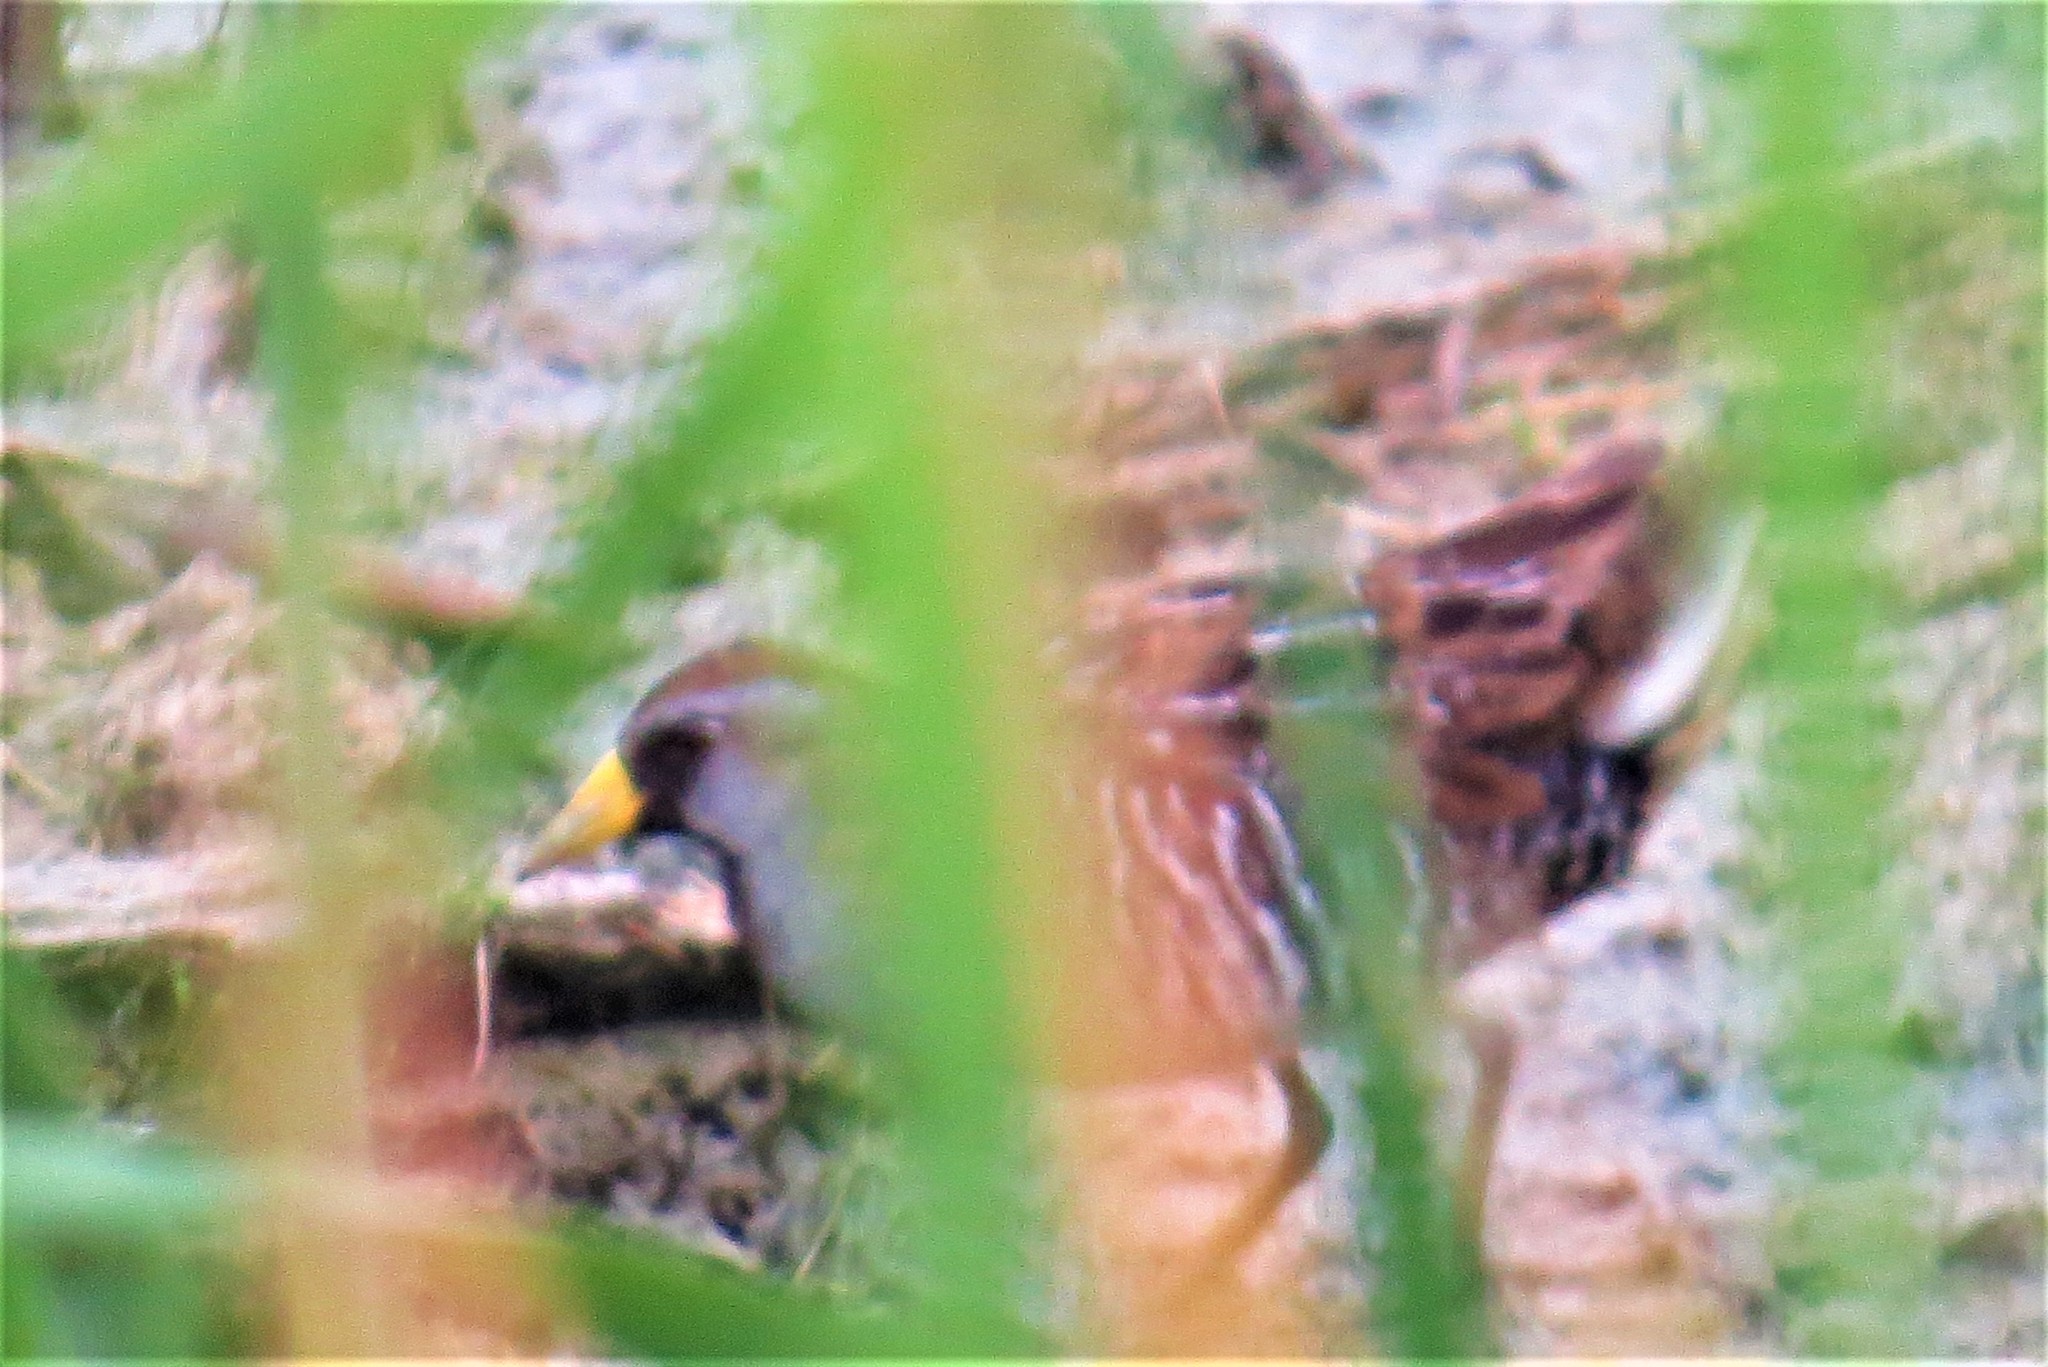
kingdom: Animalia
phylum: Chordata
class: Aves
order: Gruiformes
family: Rallidae
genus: Porzana
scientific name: Porzana carolina
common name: Sora
